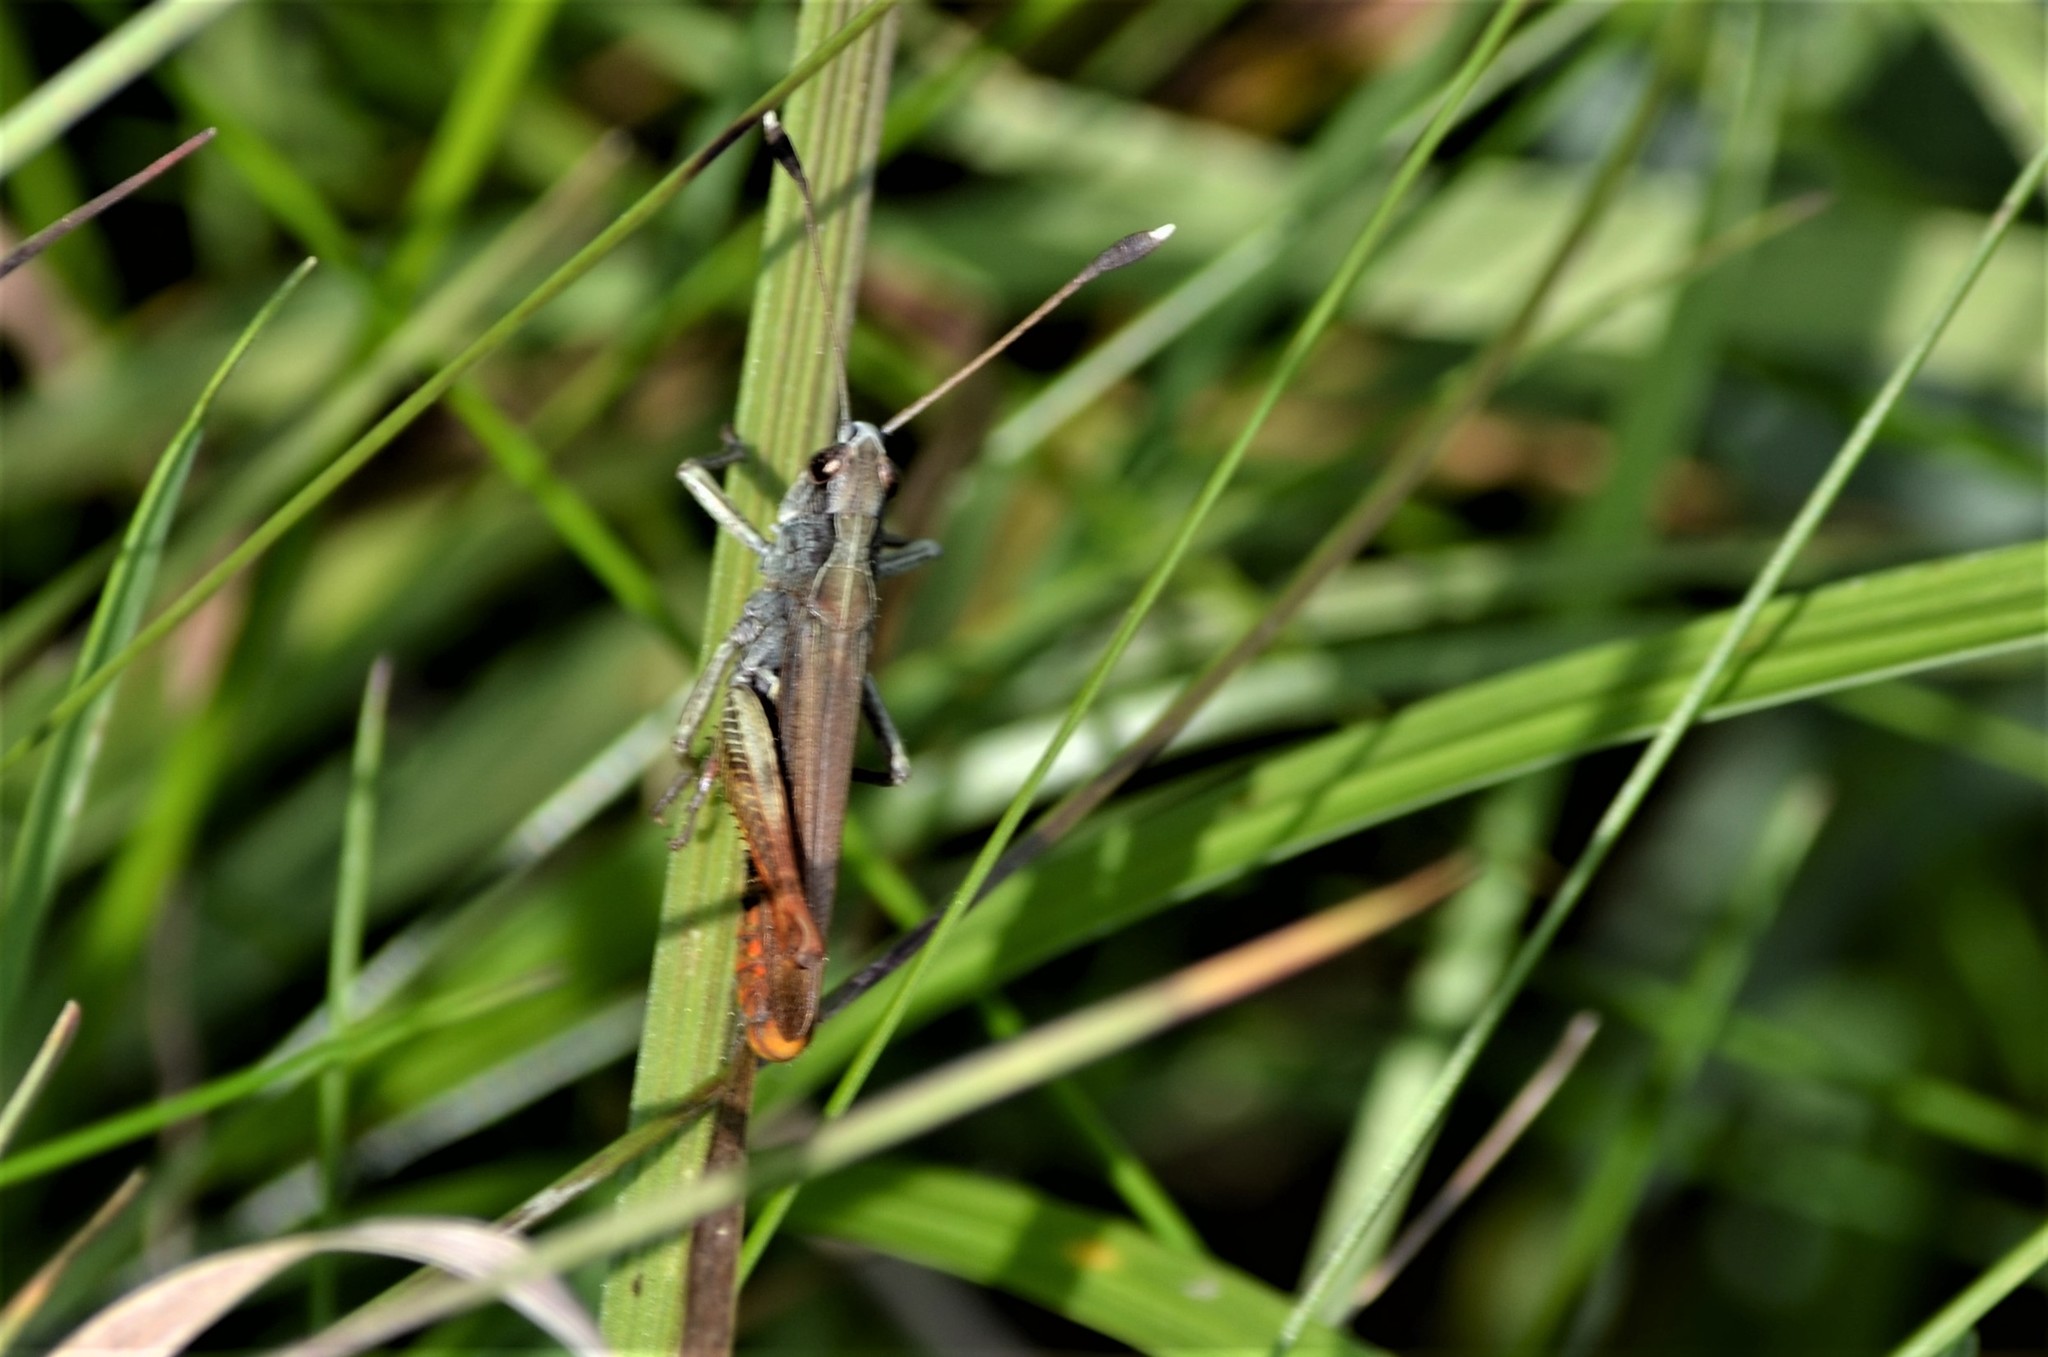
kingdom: Animalia
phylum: Arthropoda
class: Insecta
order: Orthoptera
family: Acrididae
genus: Gomphocerippus
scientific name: Gomphocerippus rufus
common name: Rufous grasshopper
